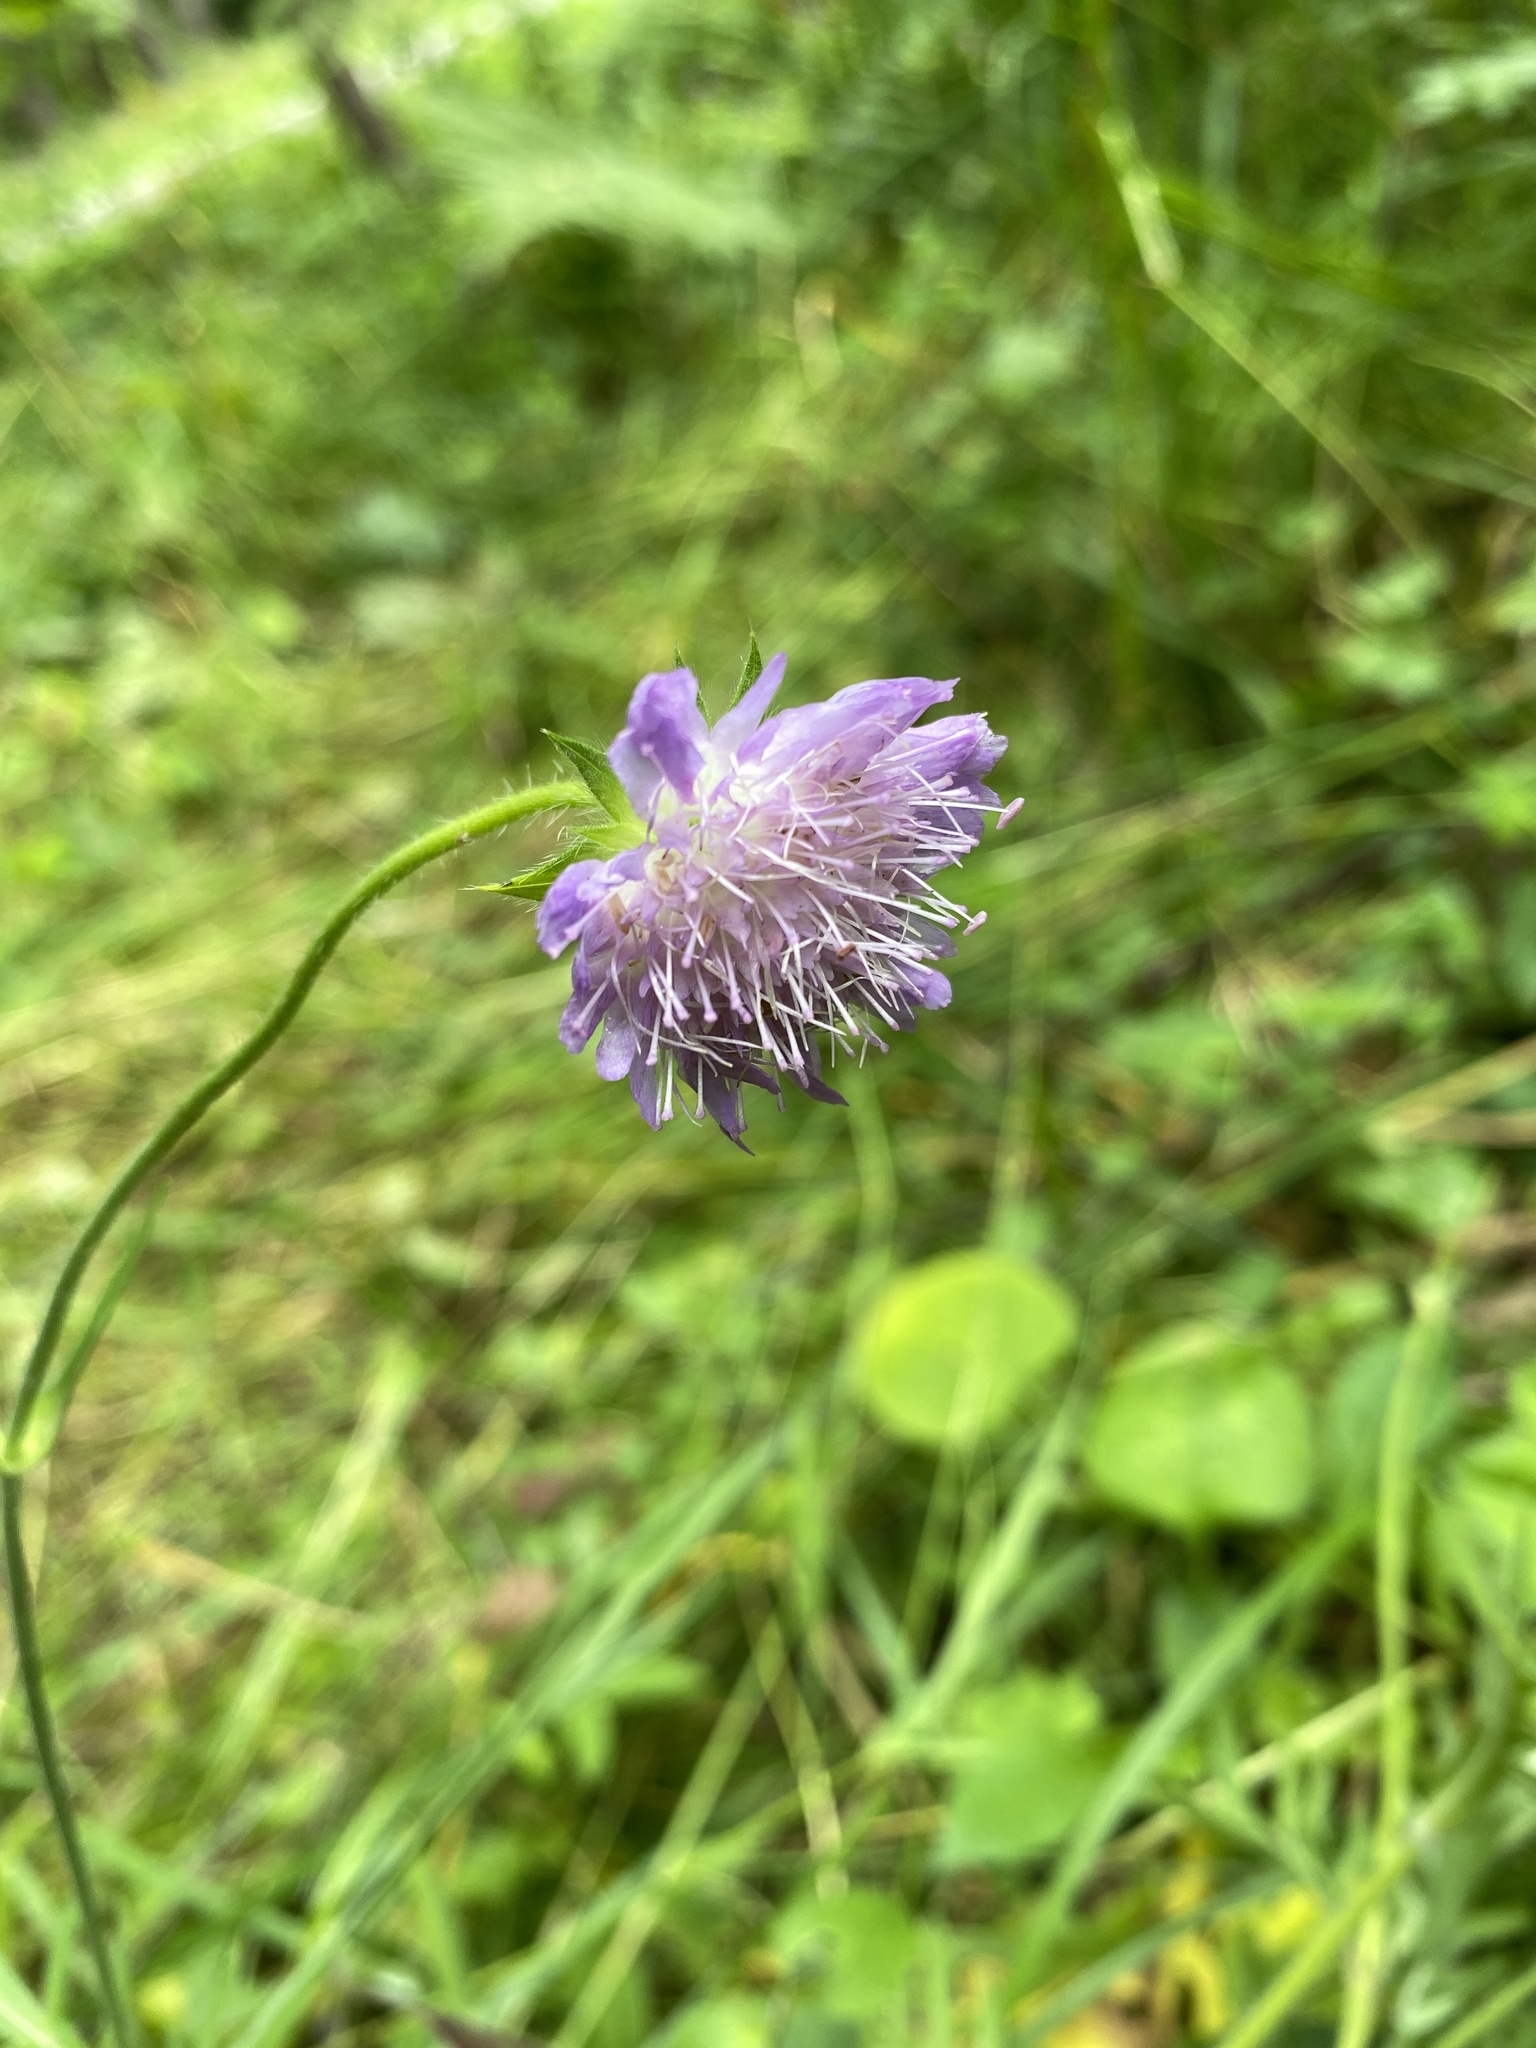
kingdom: Plantae
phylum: Tracheophyta
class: Magnoliopsida
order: Dipsacales
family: Caprifoliaceae
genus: Knautia
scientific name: Knautia arvensis
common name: Field scabiosa
